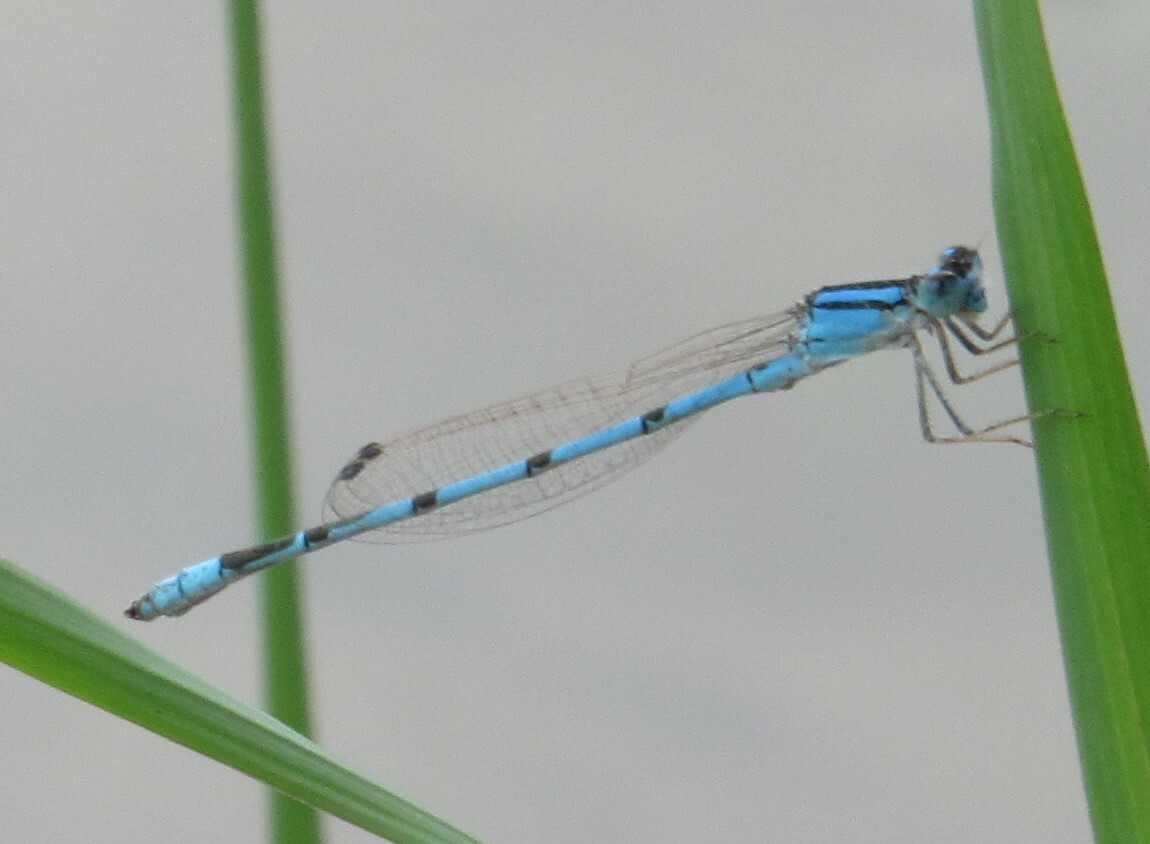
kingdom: Animalia
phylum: Arthropoda
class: Insecta
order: Odonata
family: Coenagrionidae
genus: Enallagma
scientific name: Enallagma civile
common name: Damselfly
